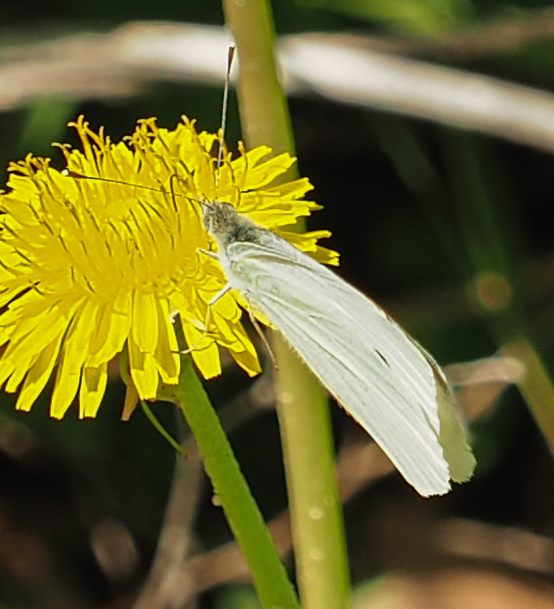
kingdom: Animalia
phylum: Arthropoda
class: Insecta
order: Lepidoptera
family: Pieridae
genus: Pieris
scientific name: Pieris rapae
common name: Small white
